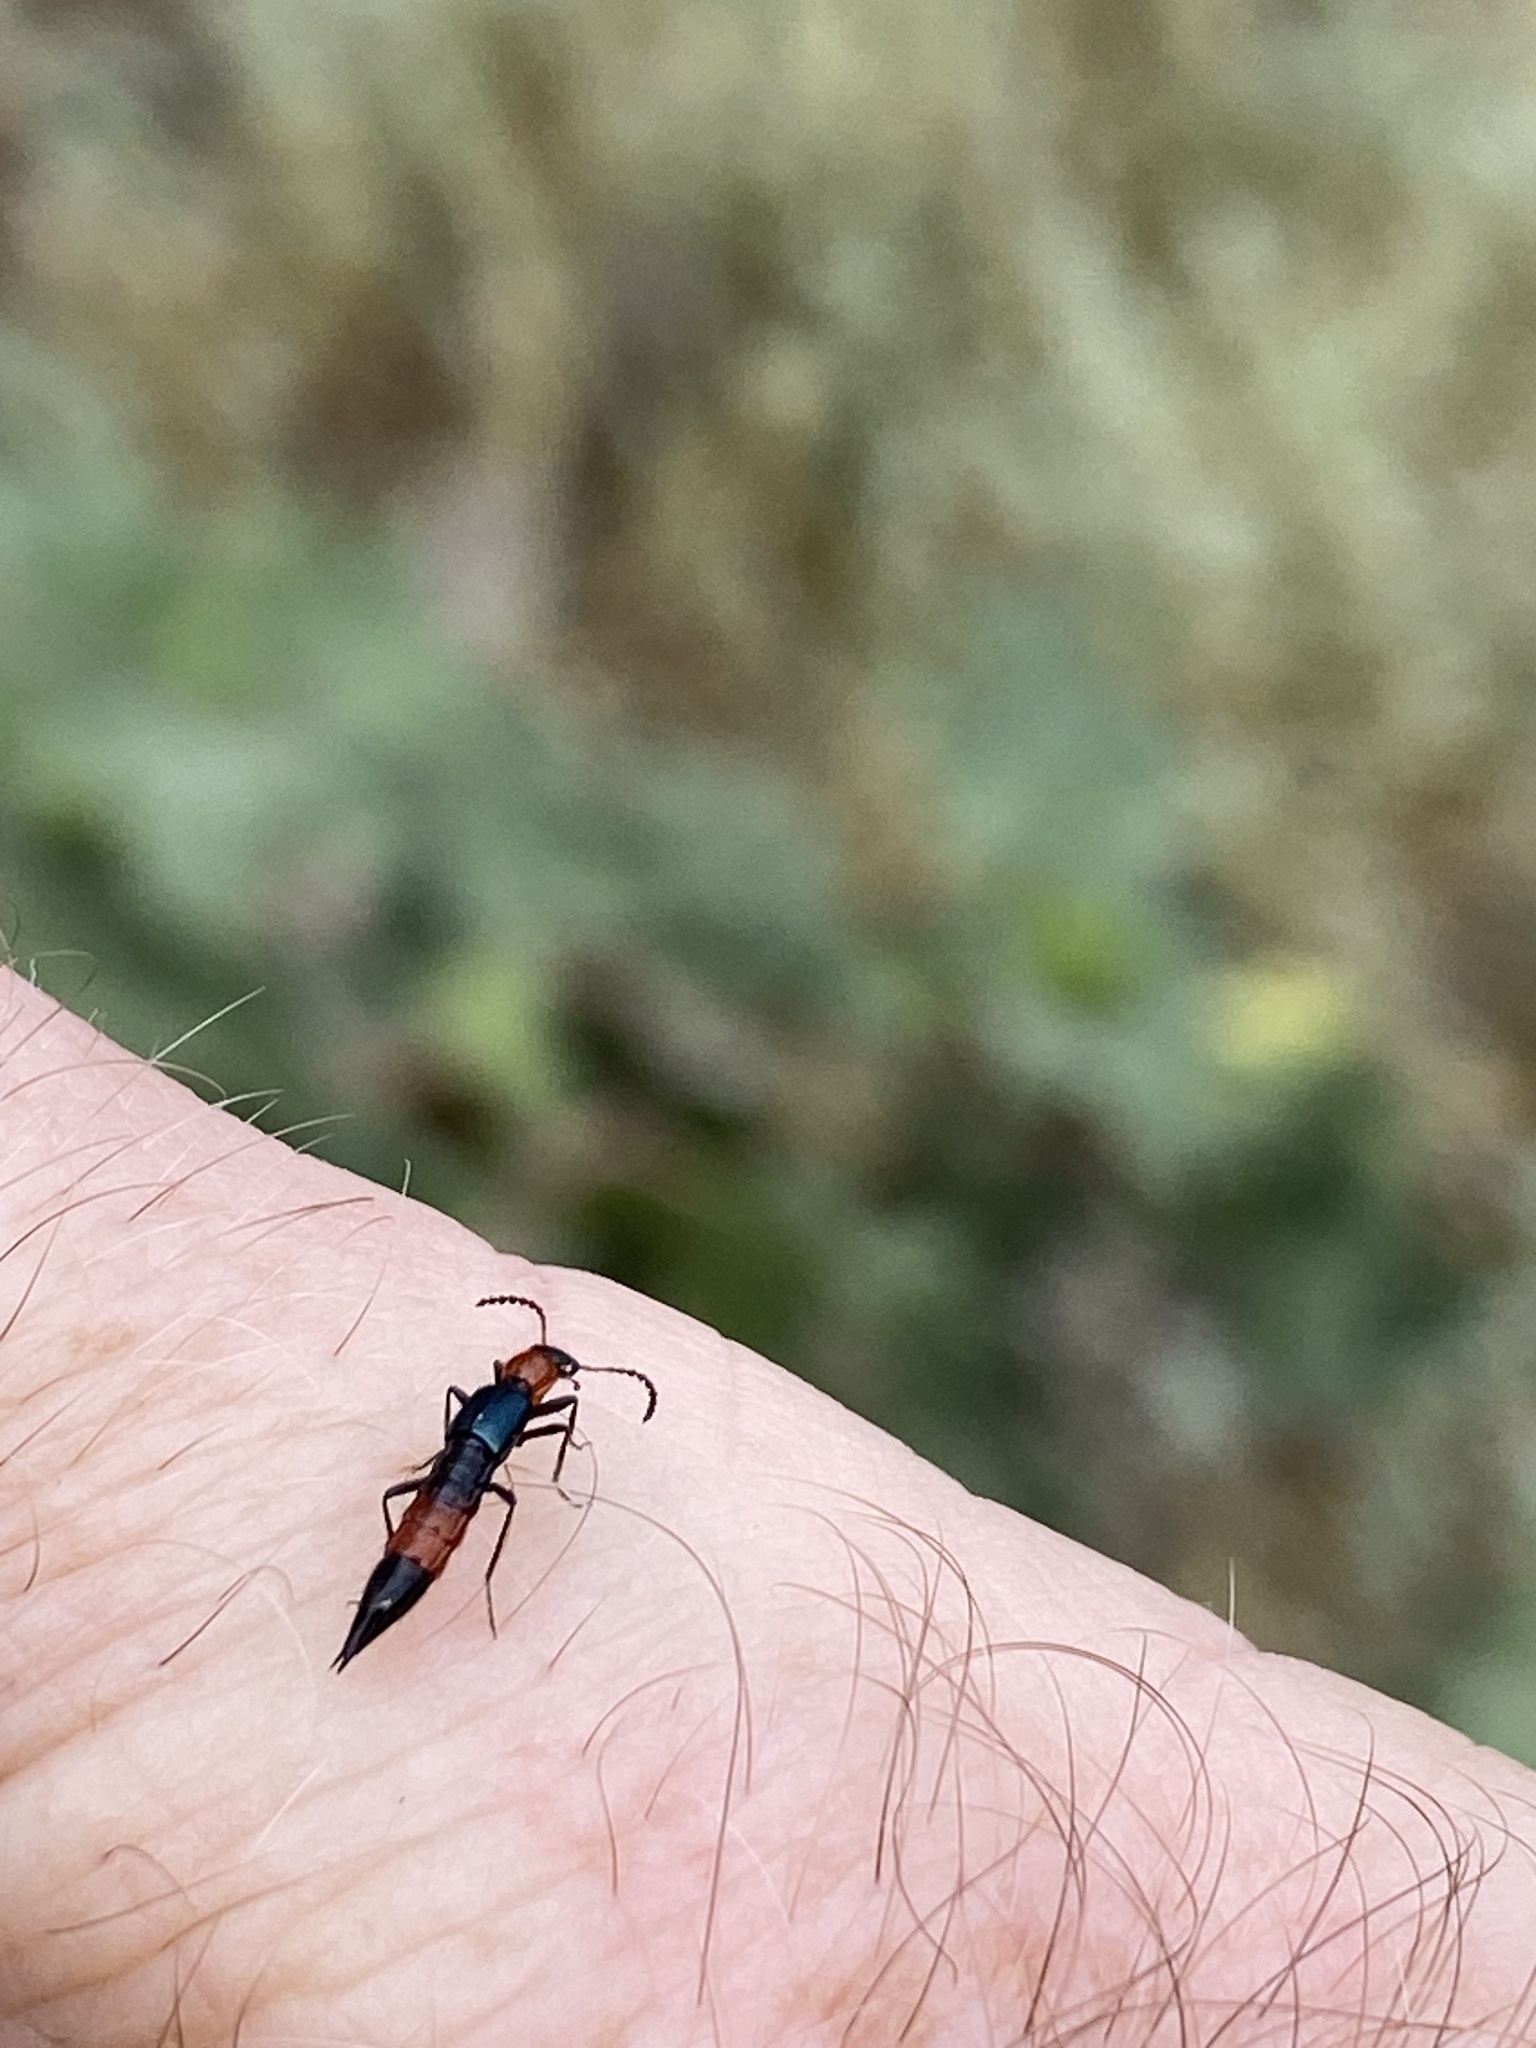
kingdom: Animalia
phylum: Arthropoda
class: Insecta
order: Coleoptera
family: Staphylinidae
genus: Paederus
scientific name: Paederus cruenticollis
